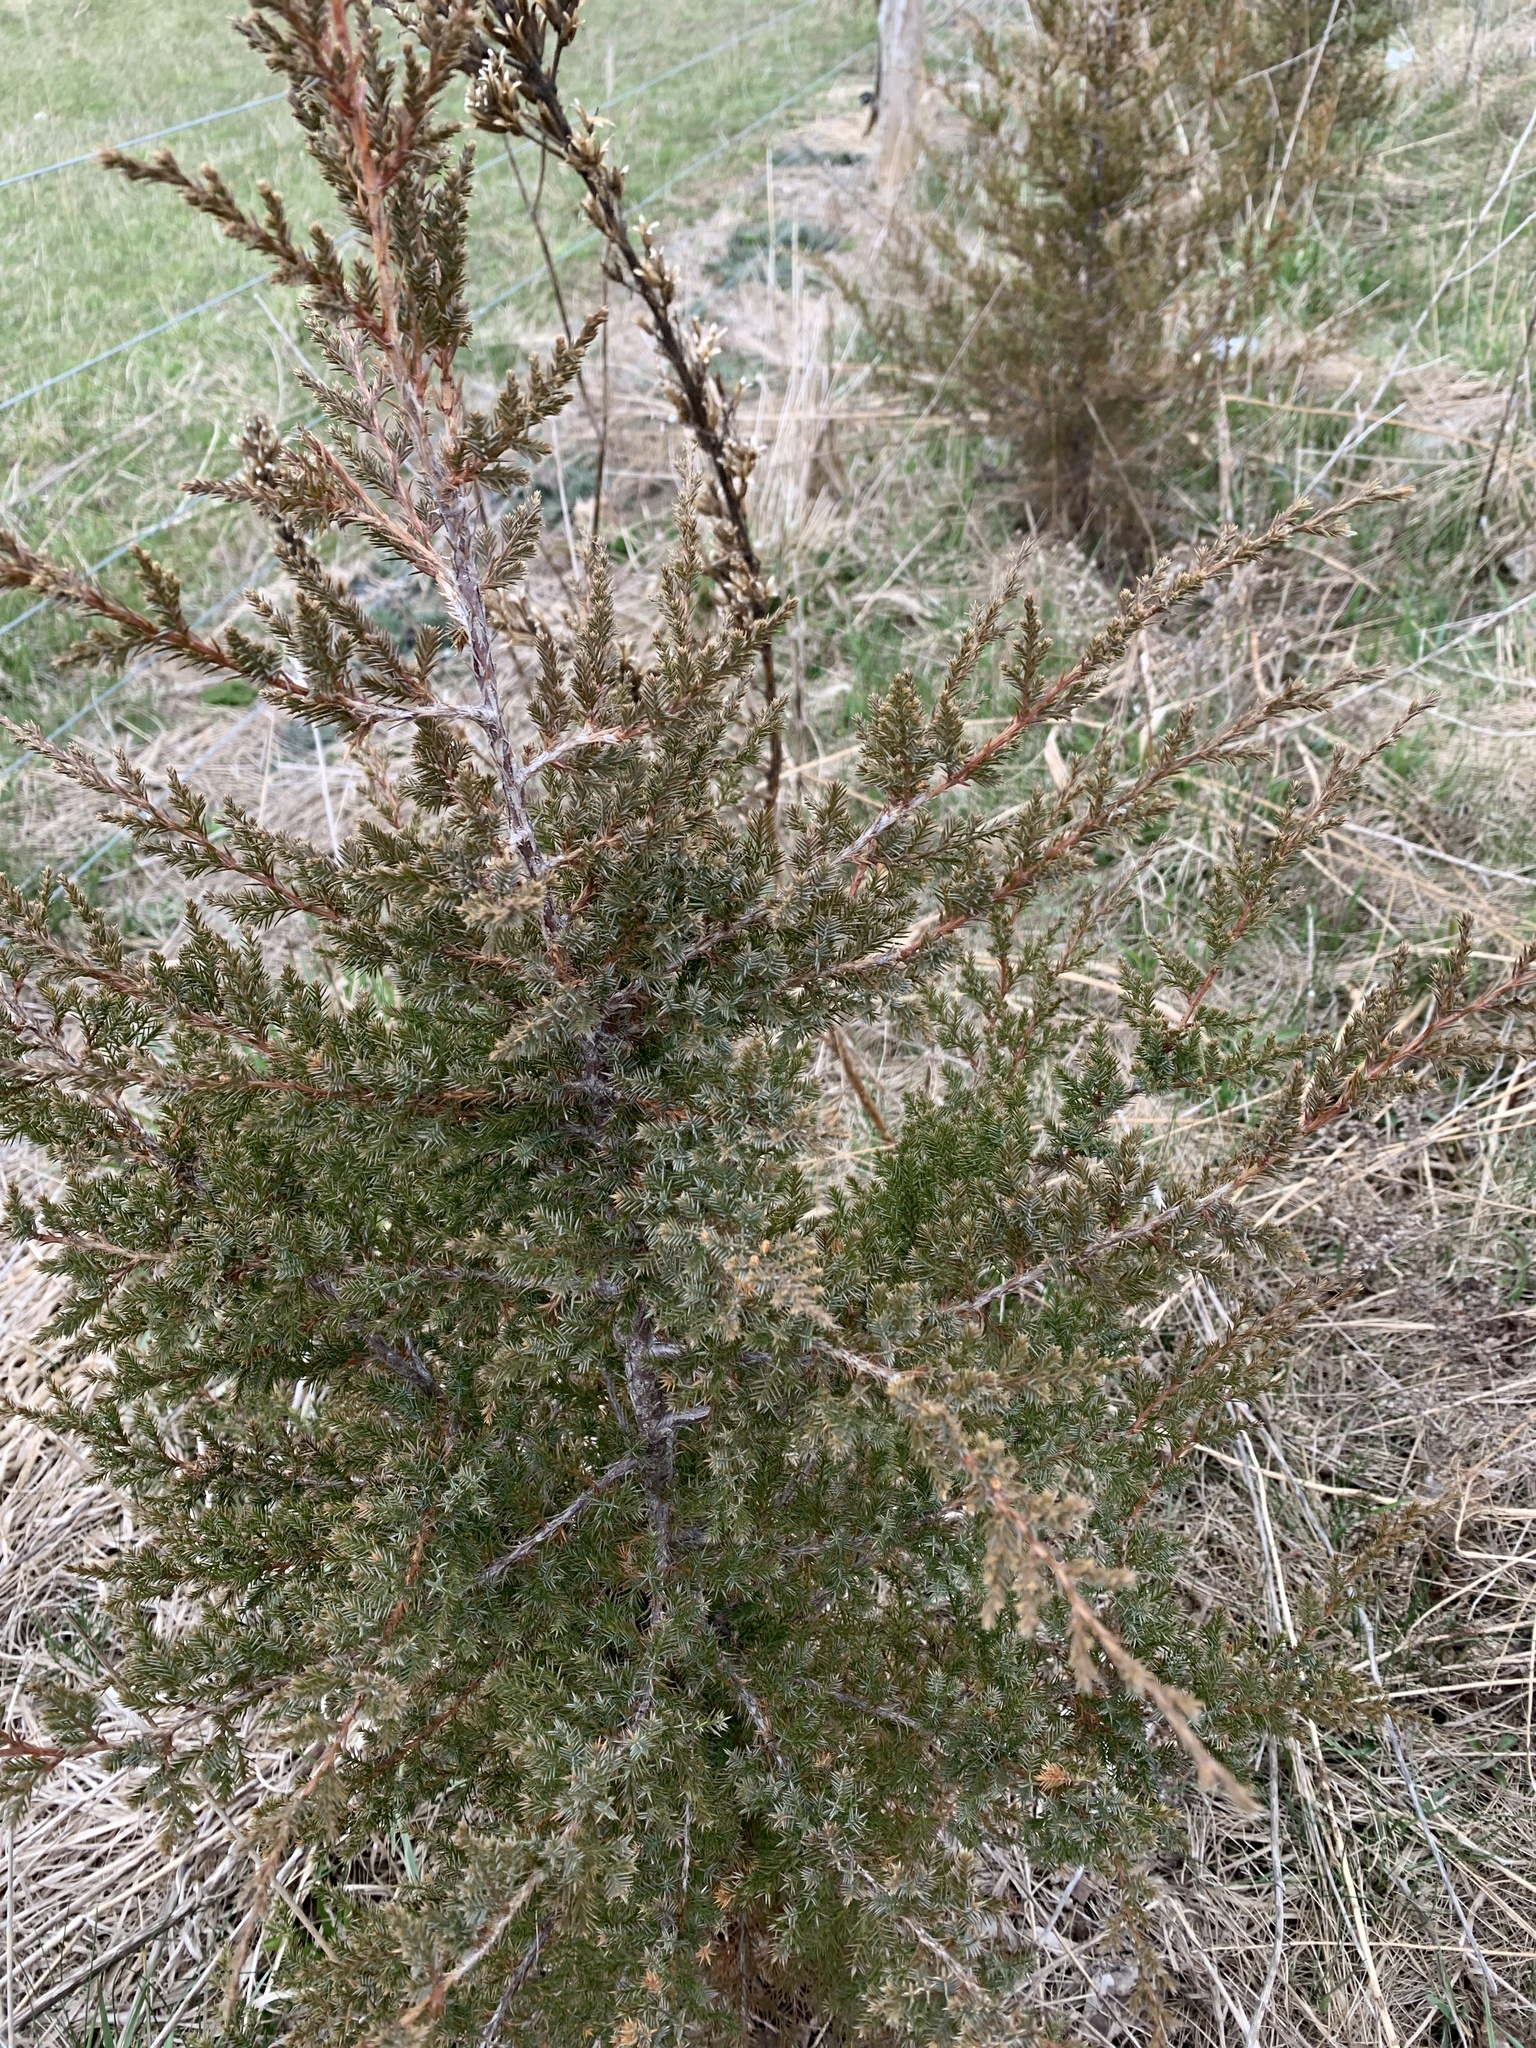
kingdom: Plantae
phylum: Tracheophyta
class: Pinopsida
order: Pinales
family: Cupressaceae
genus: Juniperus
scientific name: Juniperus virginiana
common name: Red juniper
